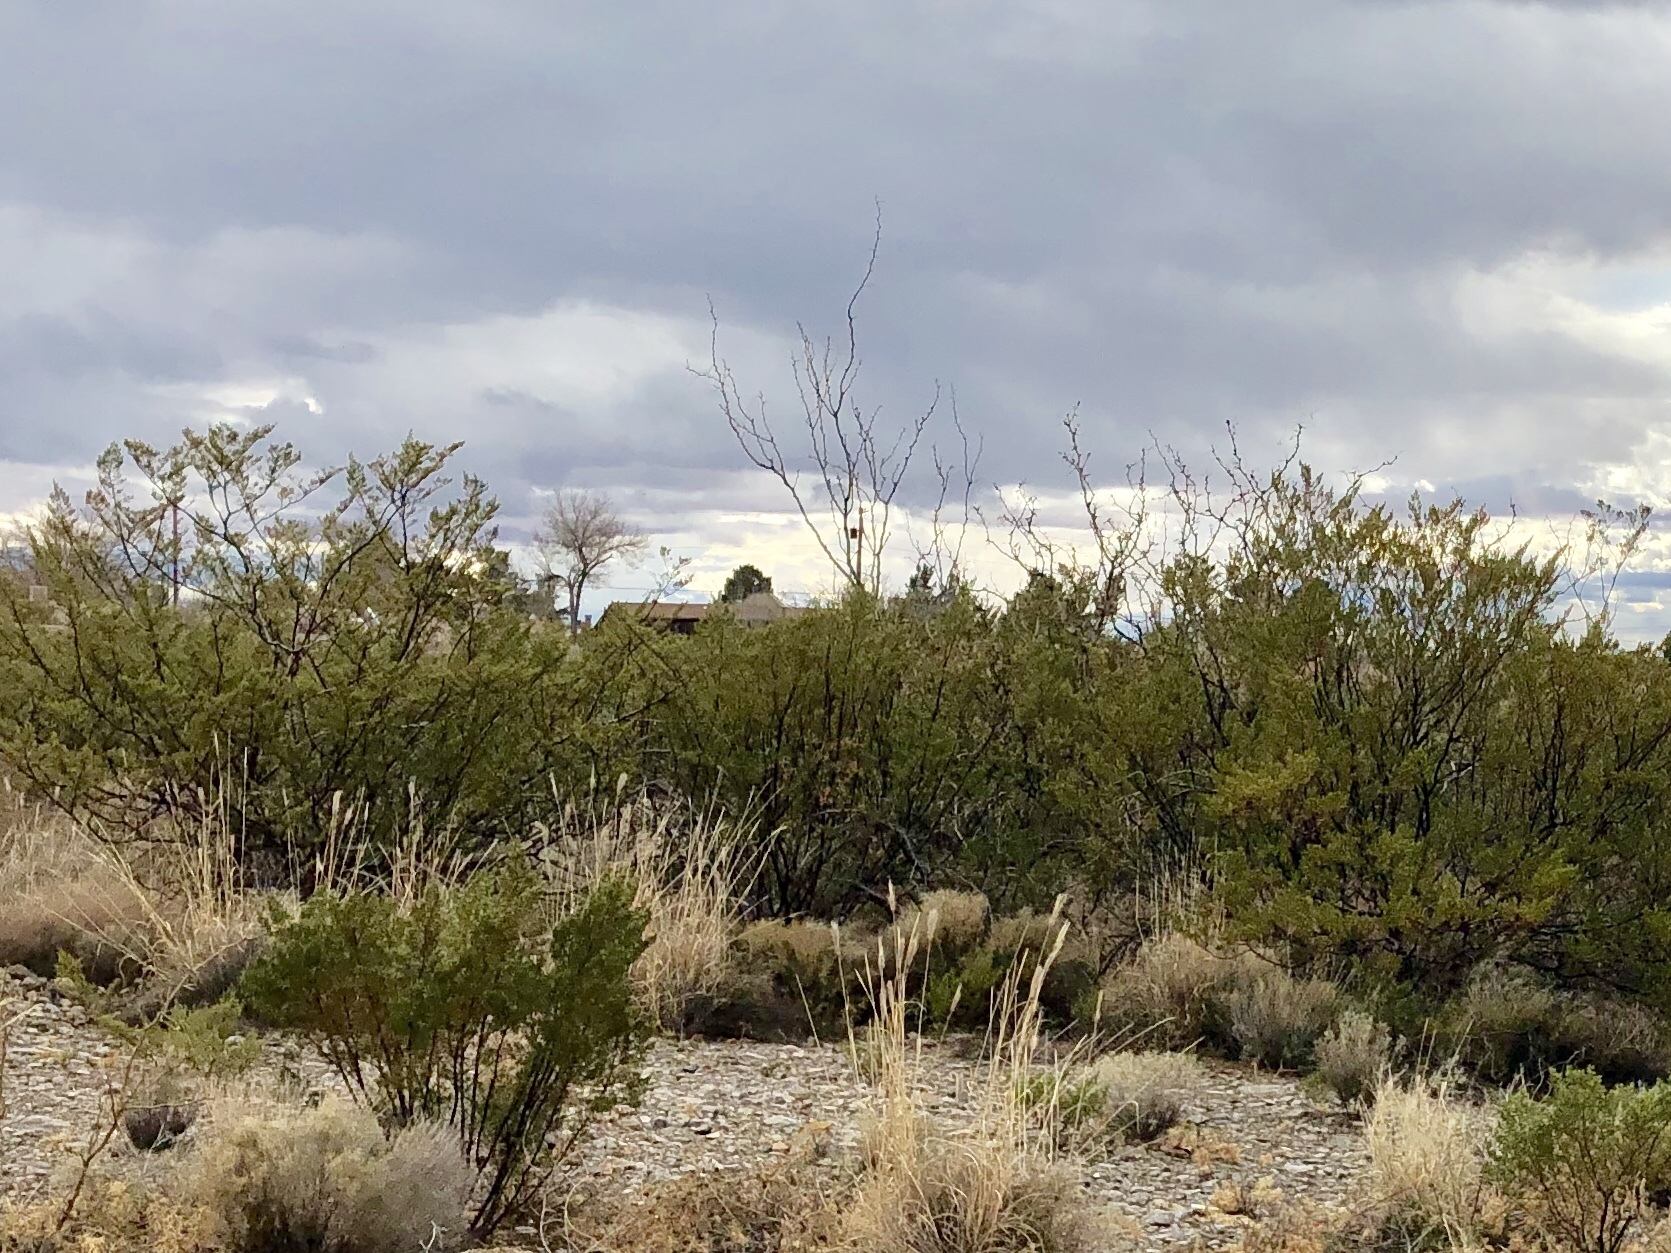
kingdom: Plantae
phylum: Tracheophyta
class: Magnoliopsida
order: Zygophyllales
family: Zygophyllaceae
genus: Larrea
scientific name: Larrea tridentata
